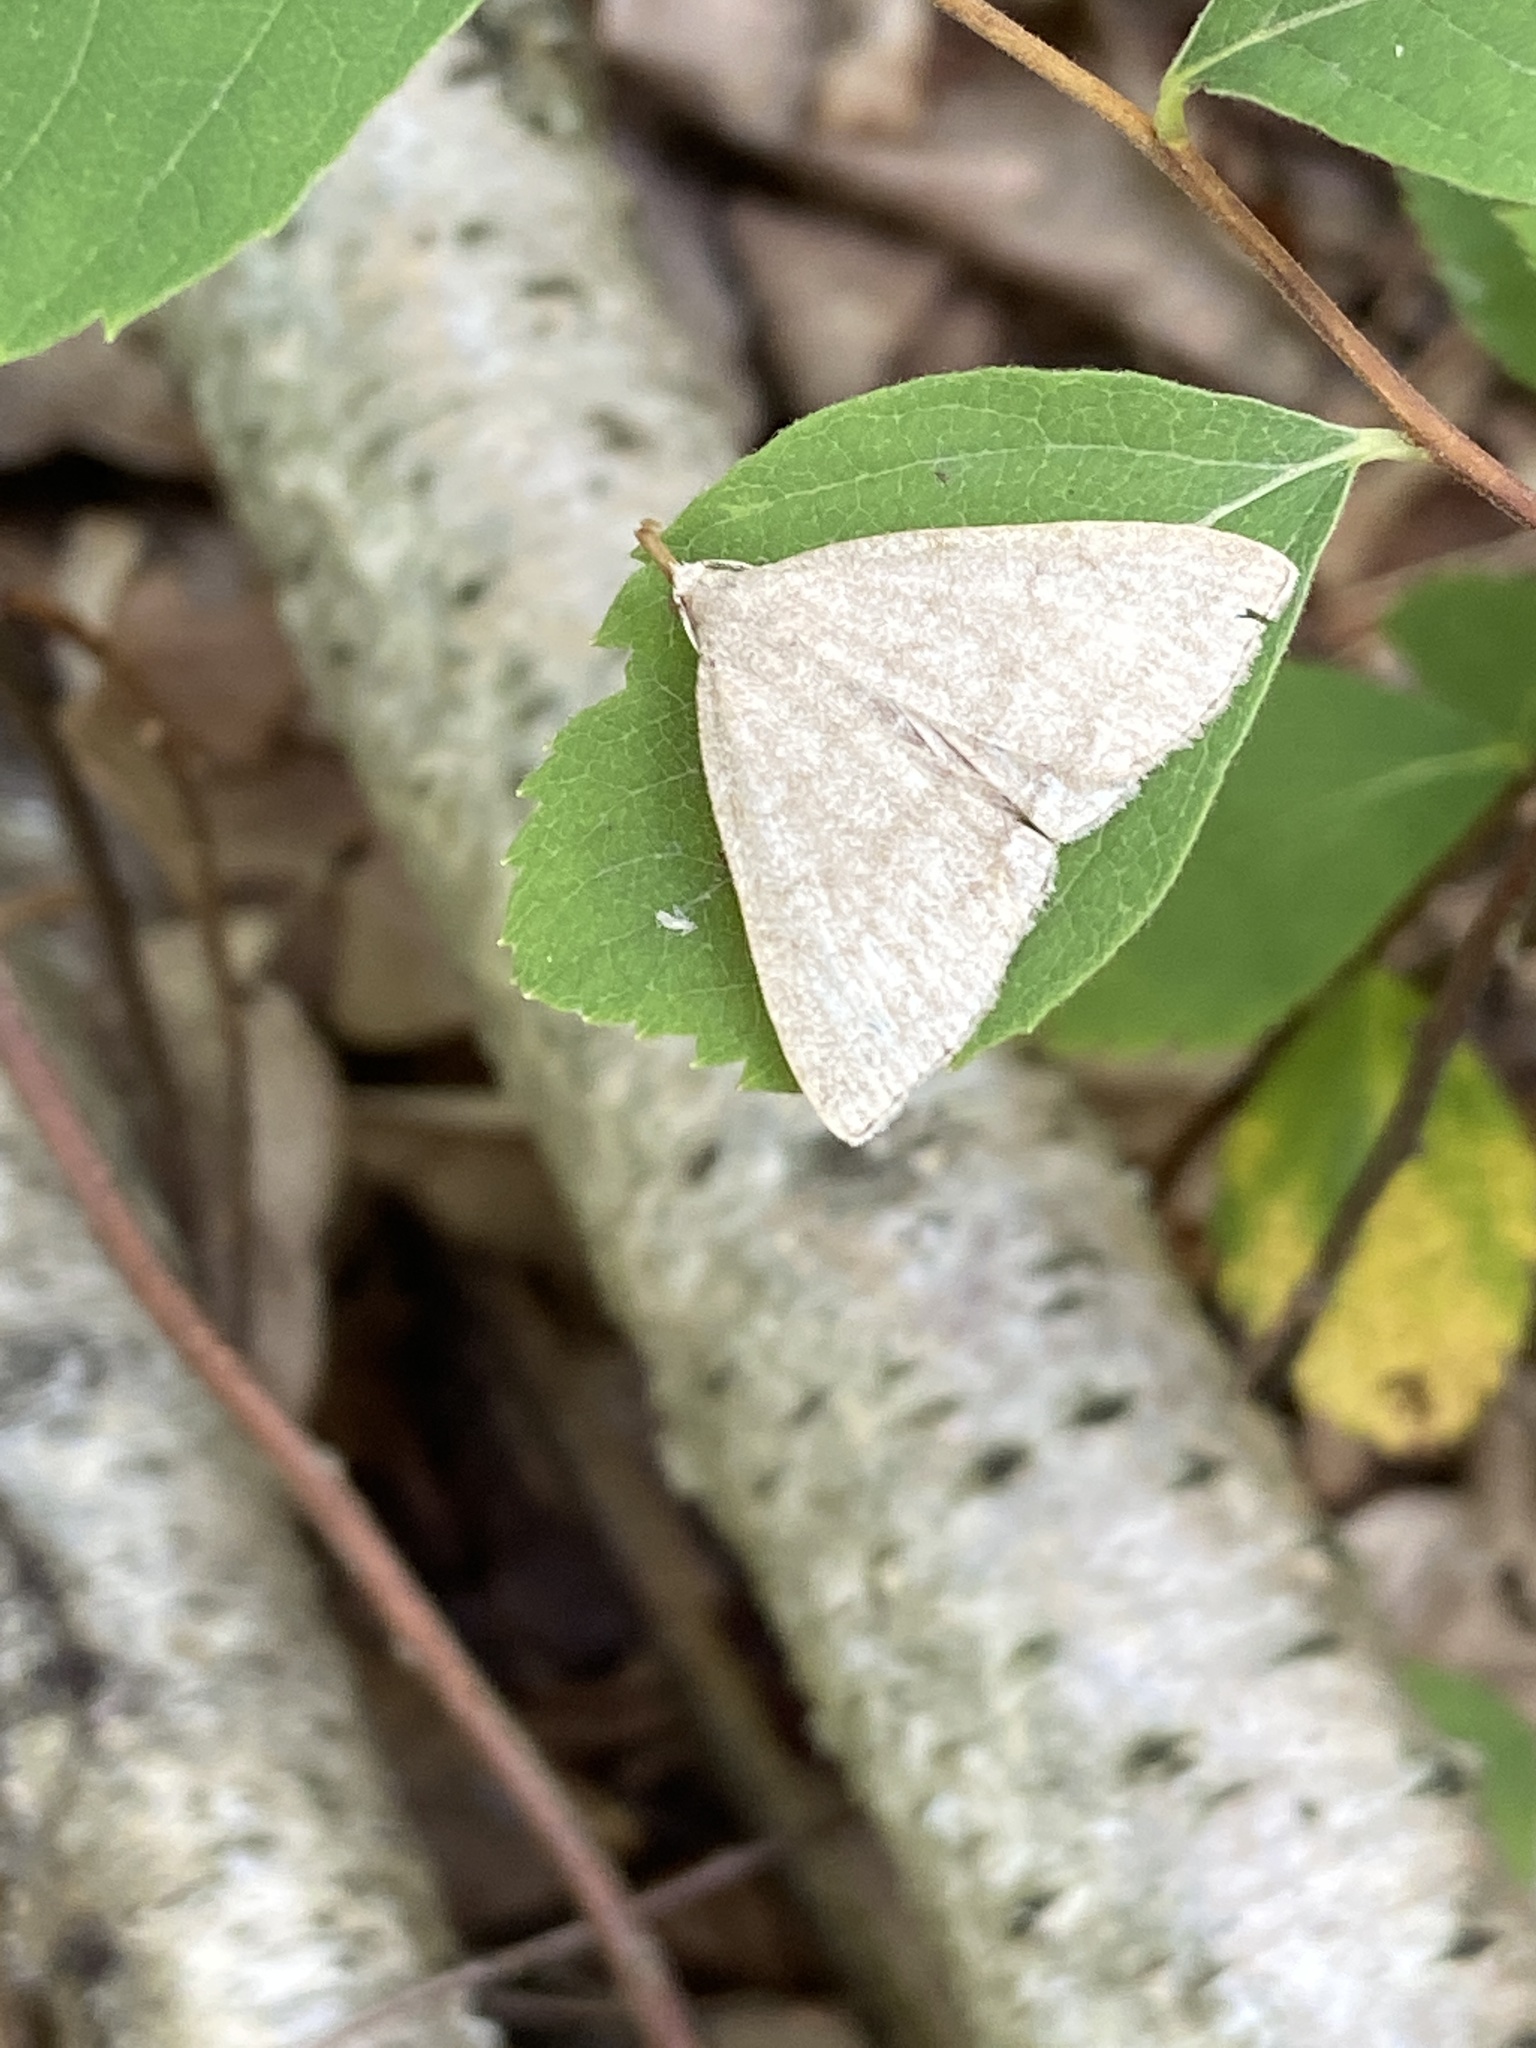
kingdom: Animalia
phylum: Arthropoda
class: Insecta
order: Lepidoptera
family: Erebidae
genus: Pechipogo
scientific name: Pechipogo strigilata
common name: Common fan-foot
